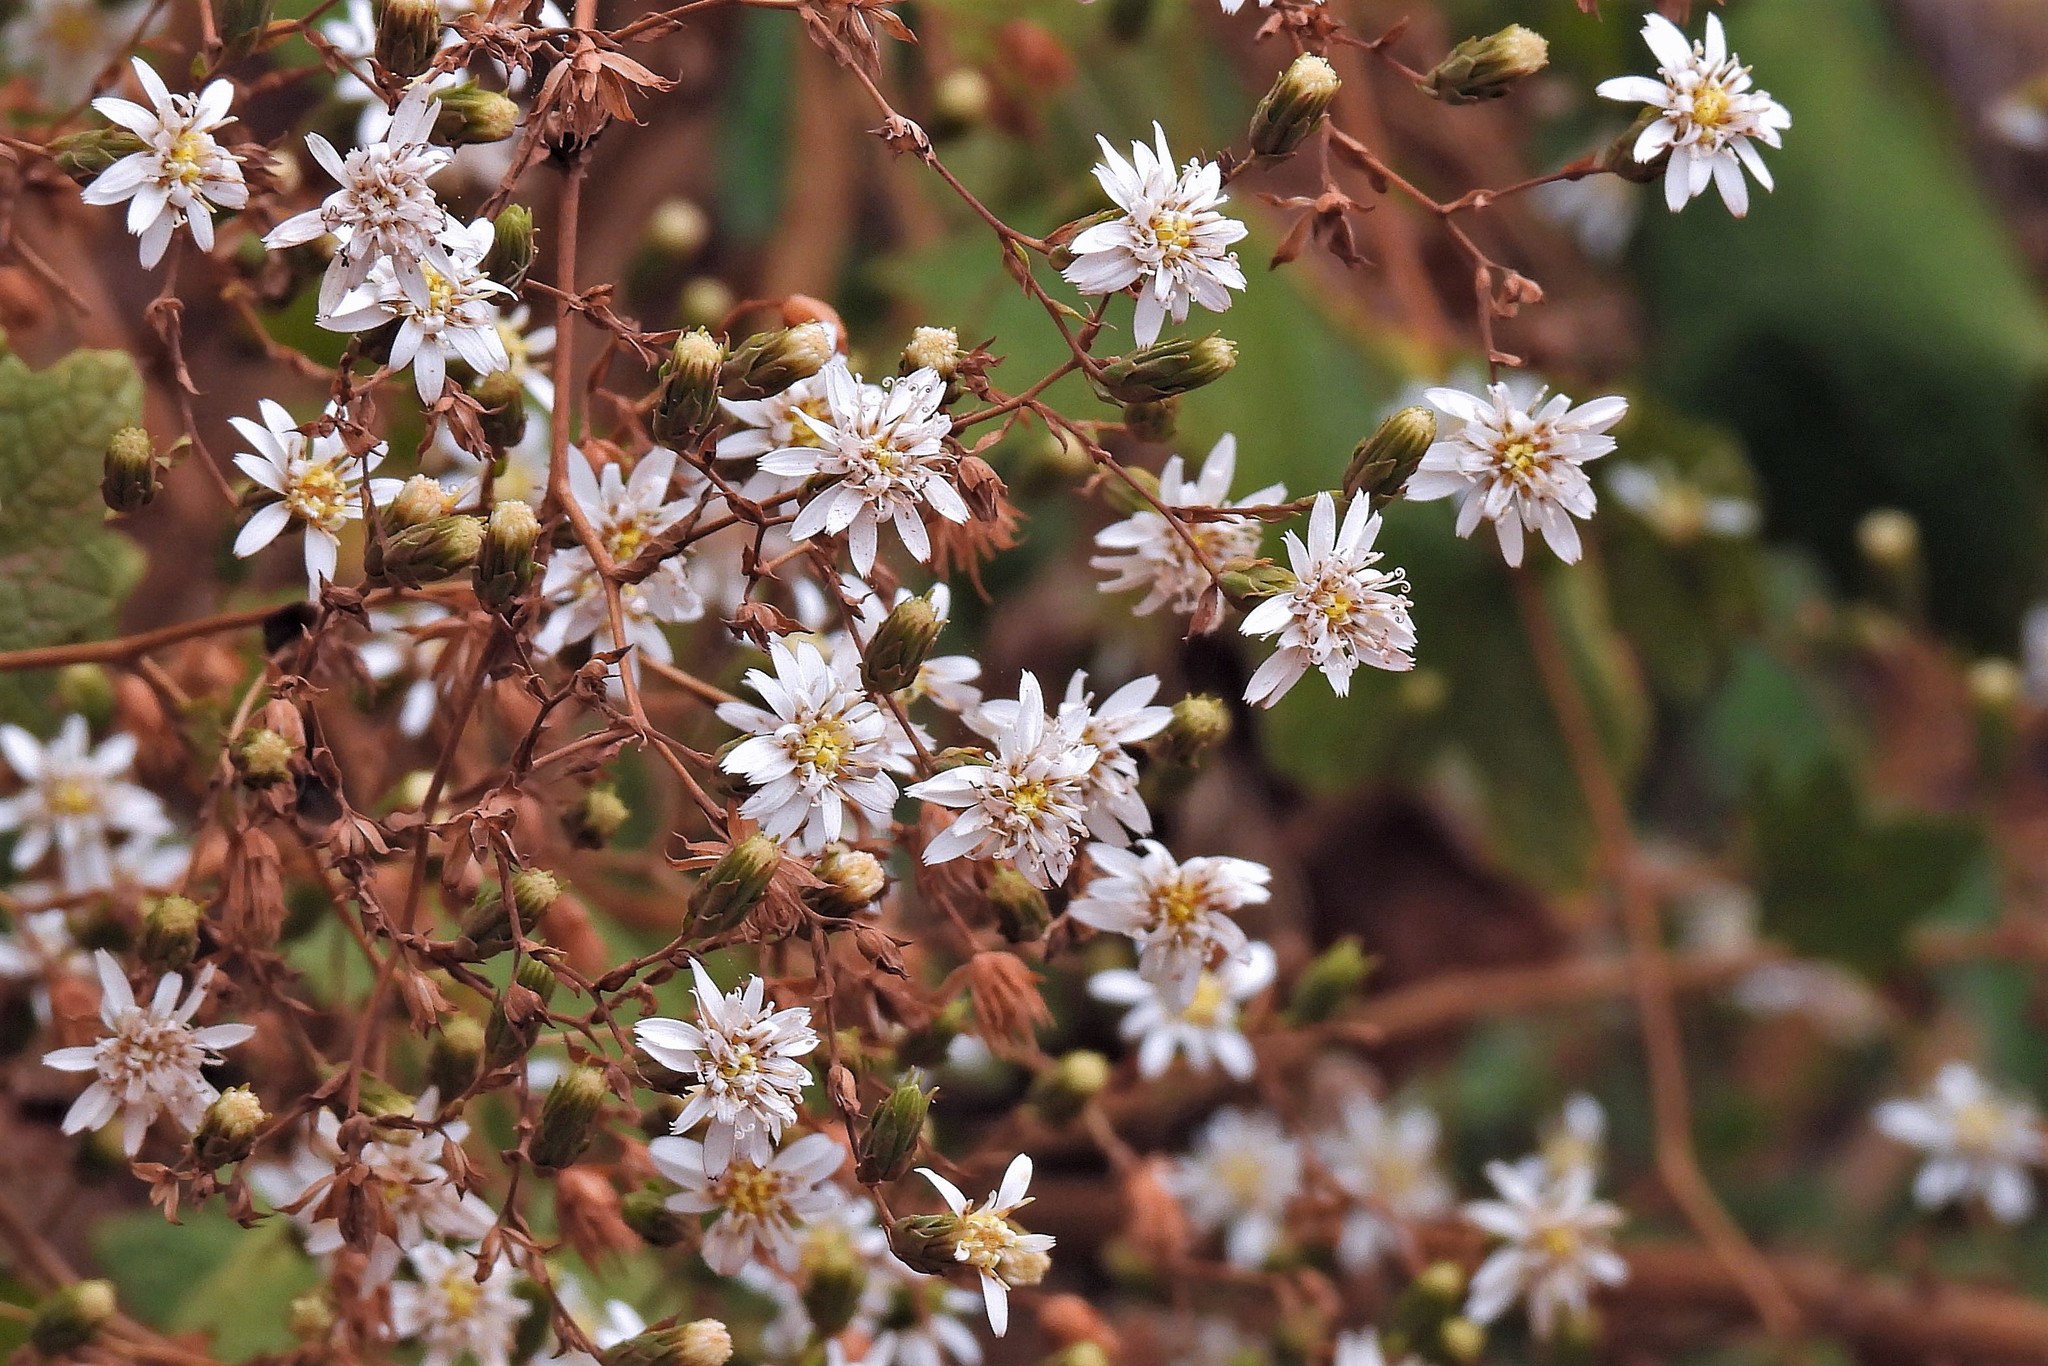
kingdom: Plantae
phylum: Tracheophyta
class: Magnoliopsida
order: Asterales
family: Asteraceae
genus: Jungia
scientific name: Jungia polita
